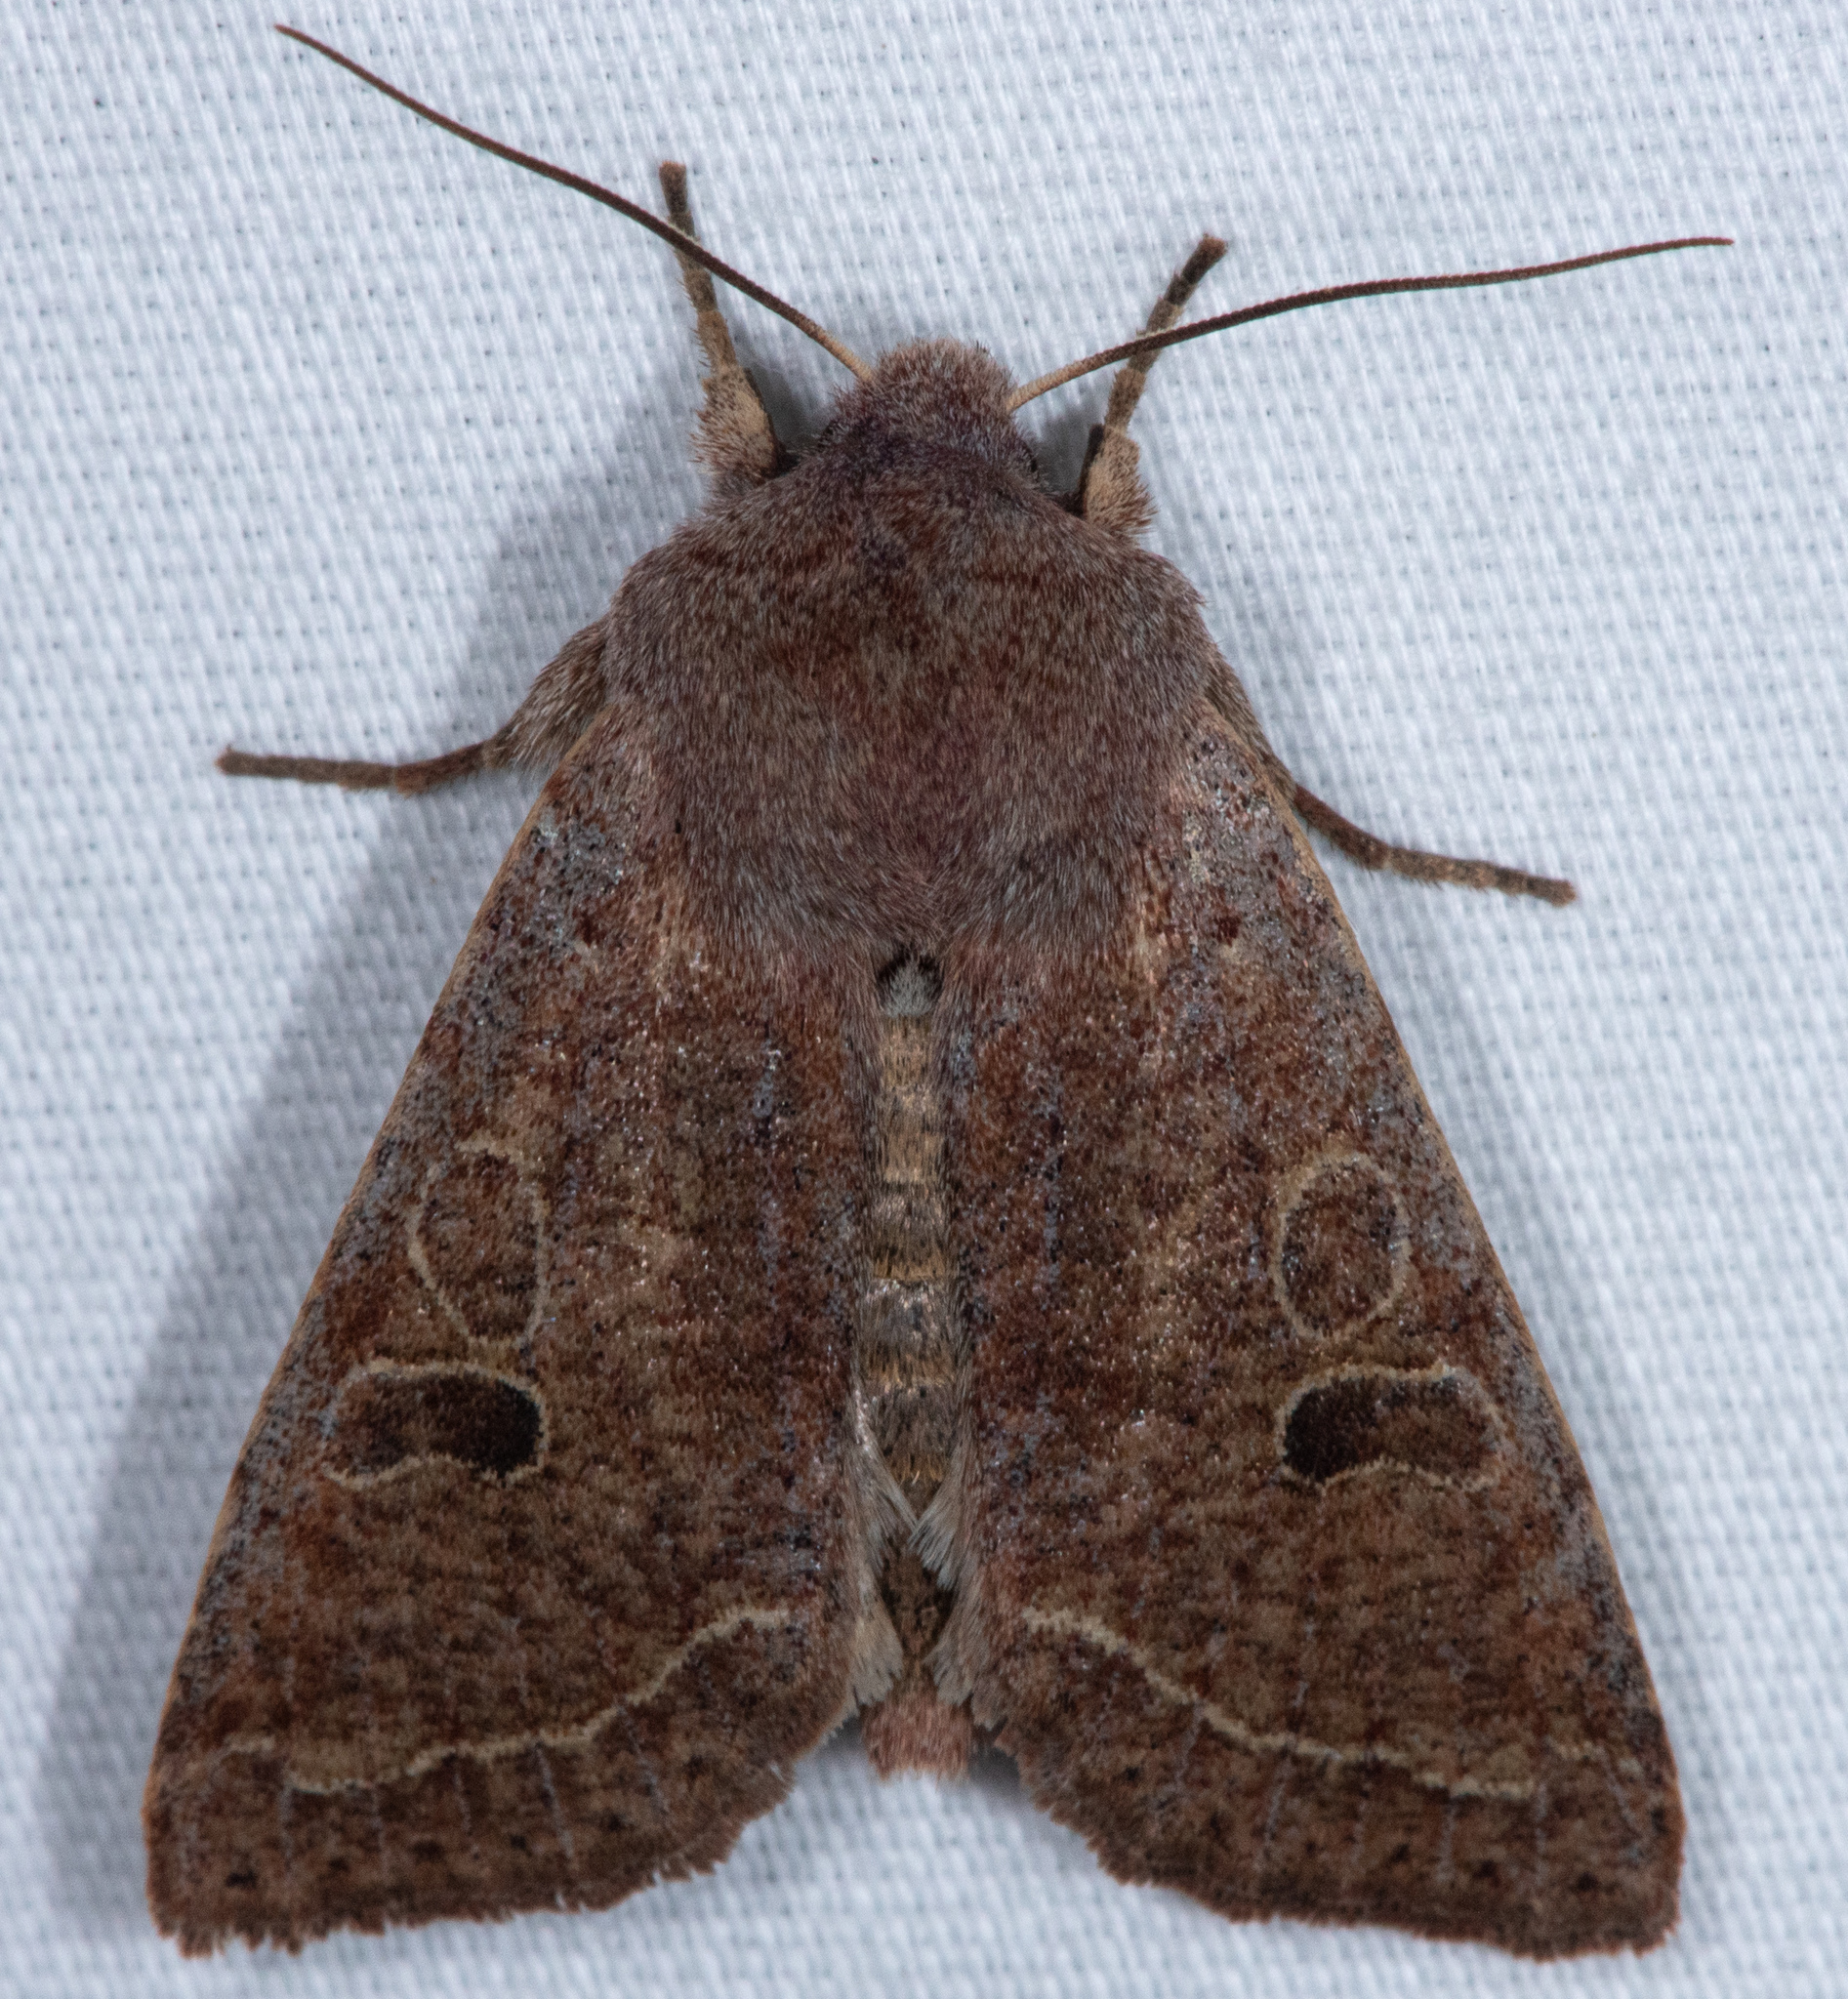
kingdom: Animalia
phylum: Arthropoda
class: Insecta
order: Lepidoptera
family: Noctuidae
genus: Orthosia
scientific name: Orthosia hibisci
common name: Green fruitworm
